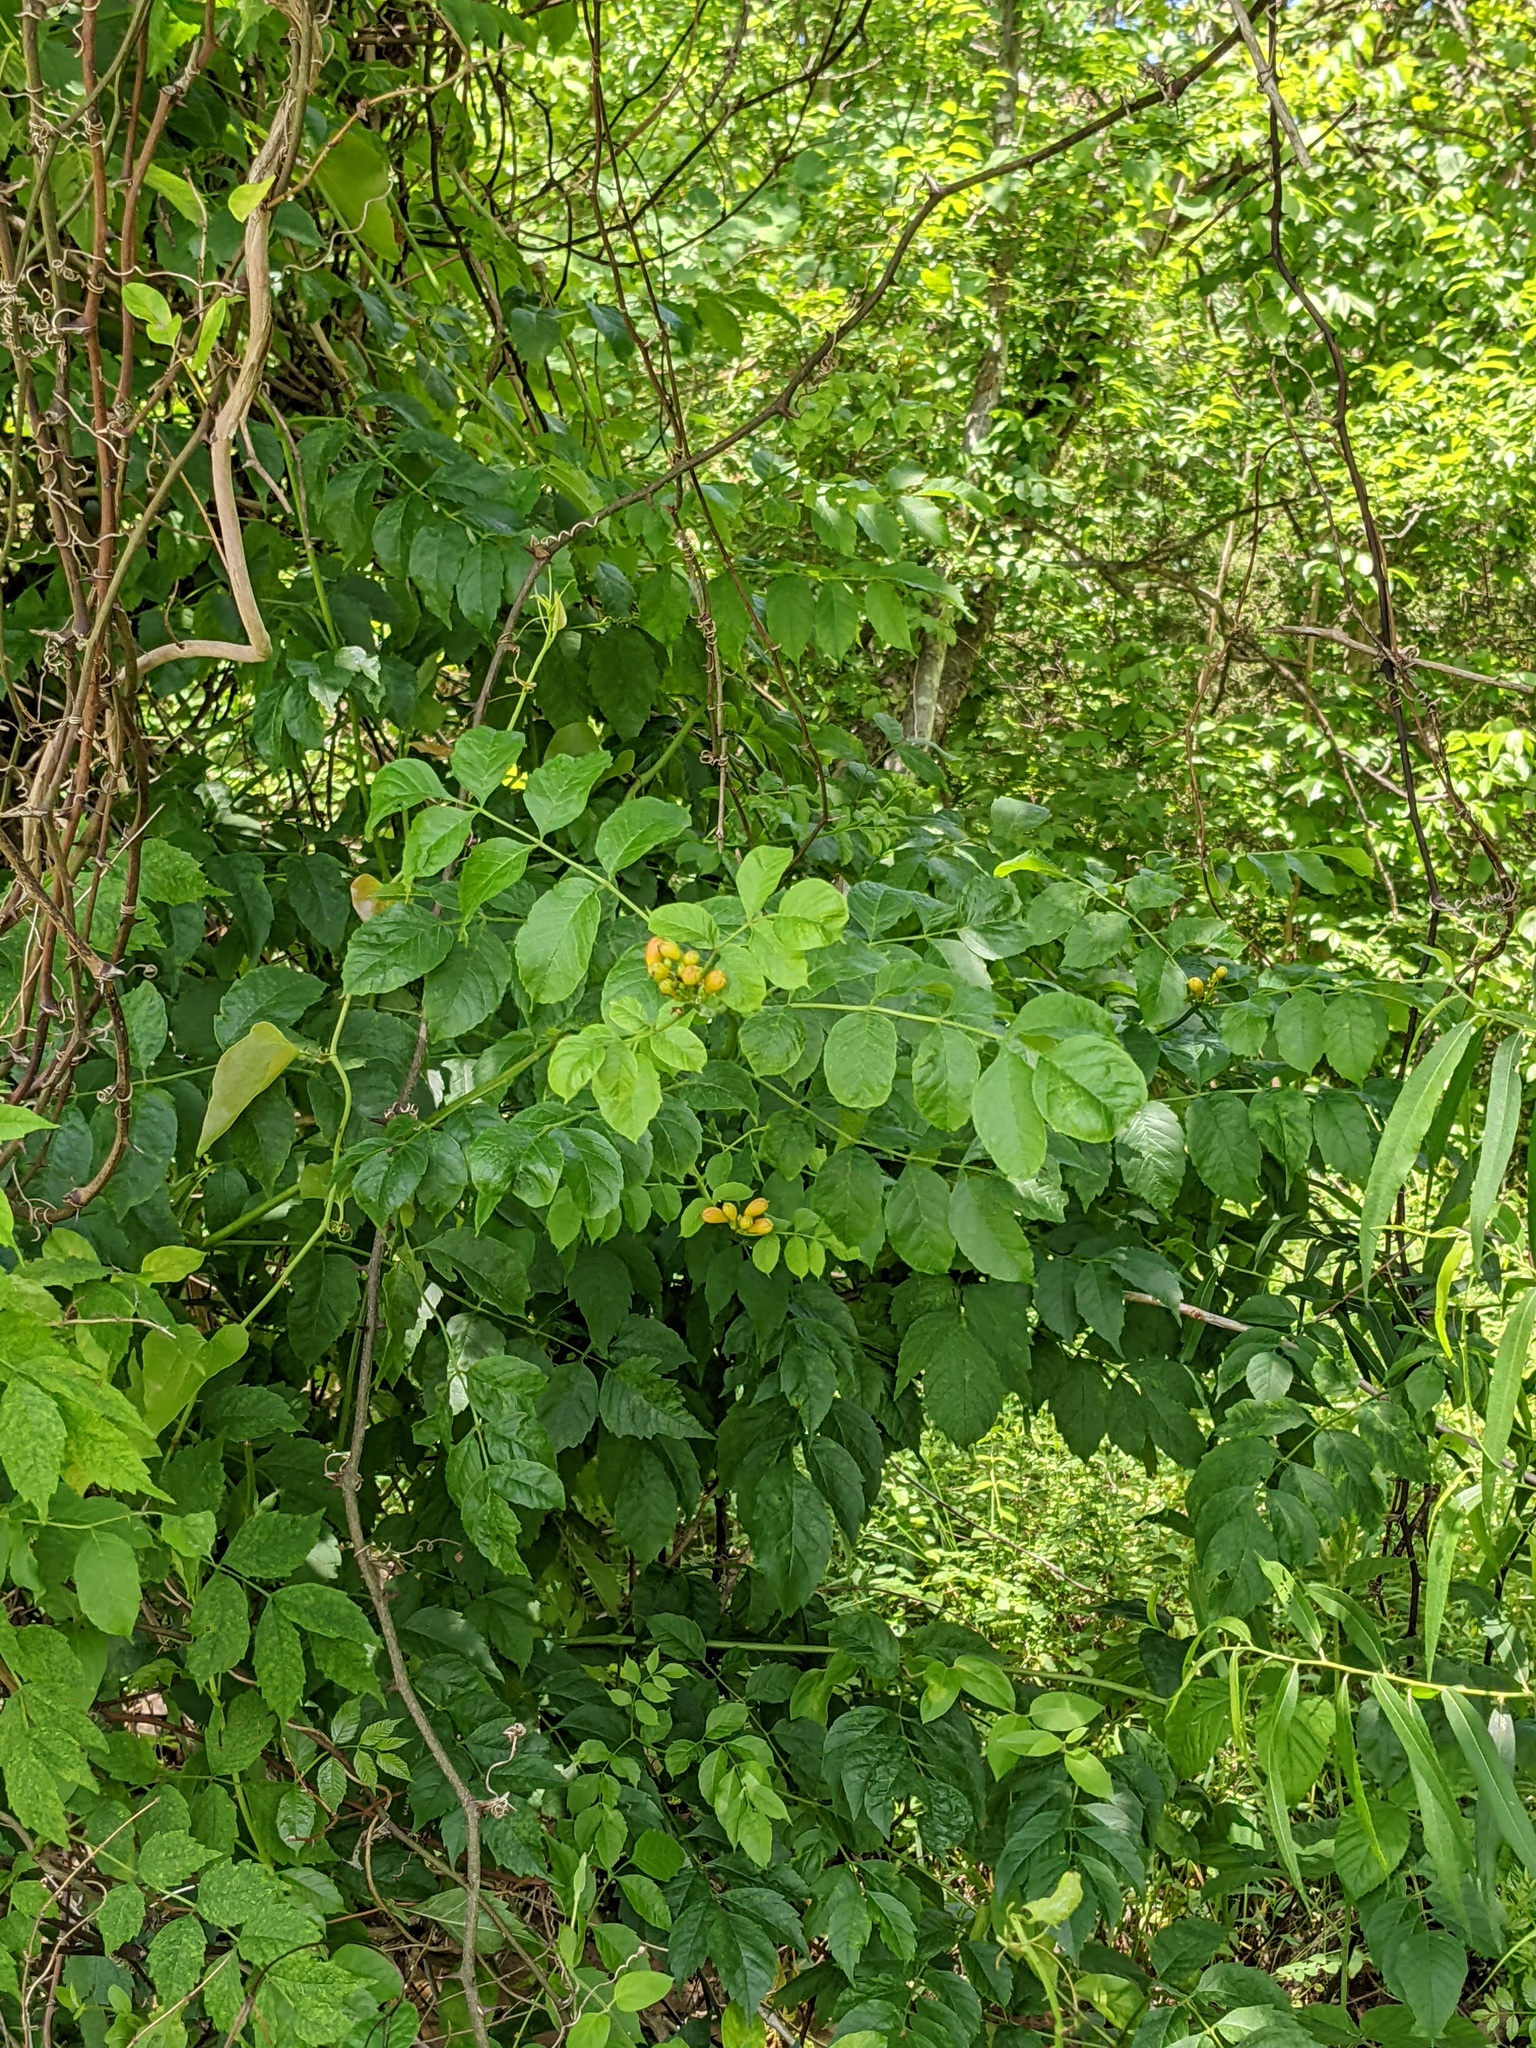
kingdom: Plantae
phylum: Tracheophyta
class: Magnoliopsida
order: Lamiales
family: Bignoniaceae
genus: Campsis
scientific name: Campsis radicans
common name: Trumpet-creeper
